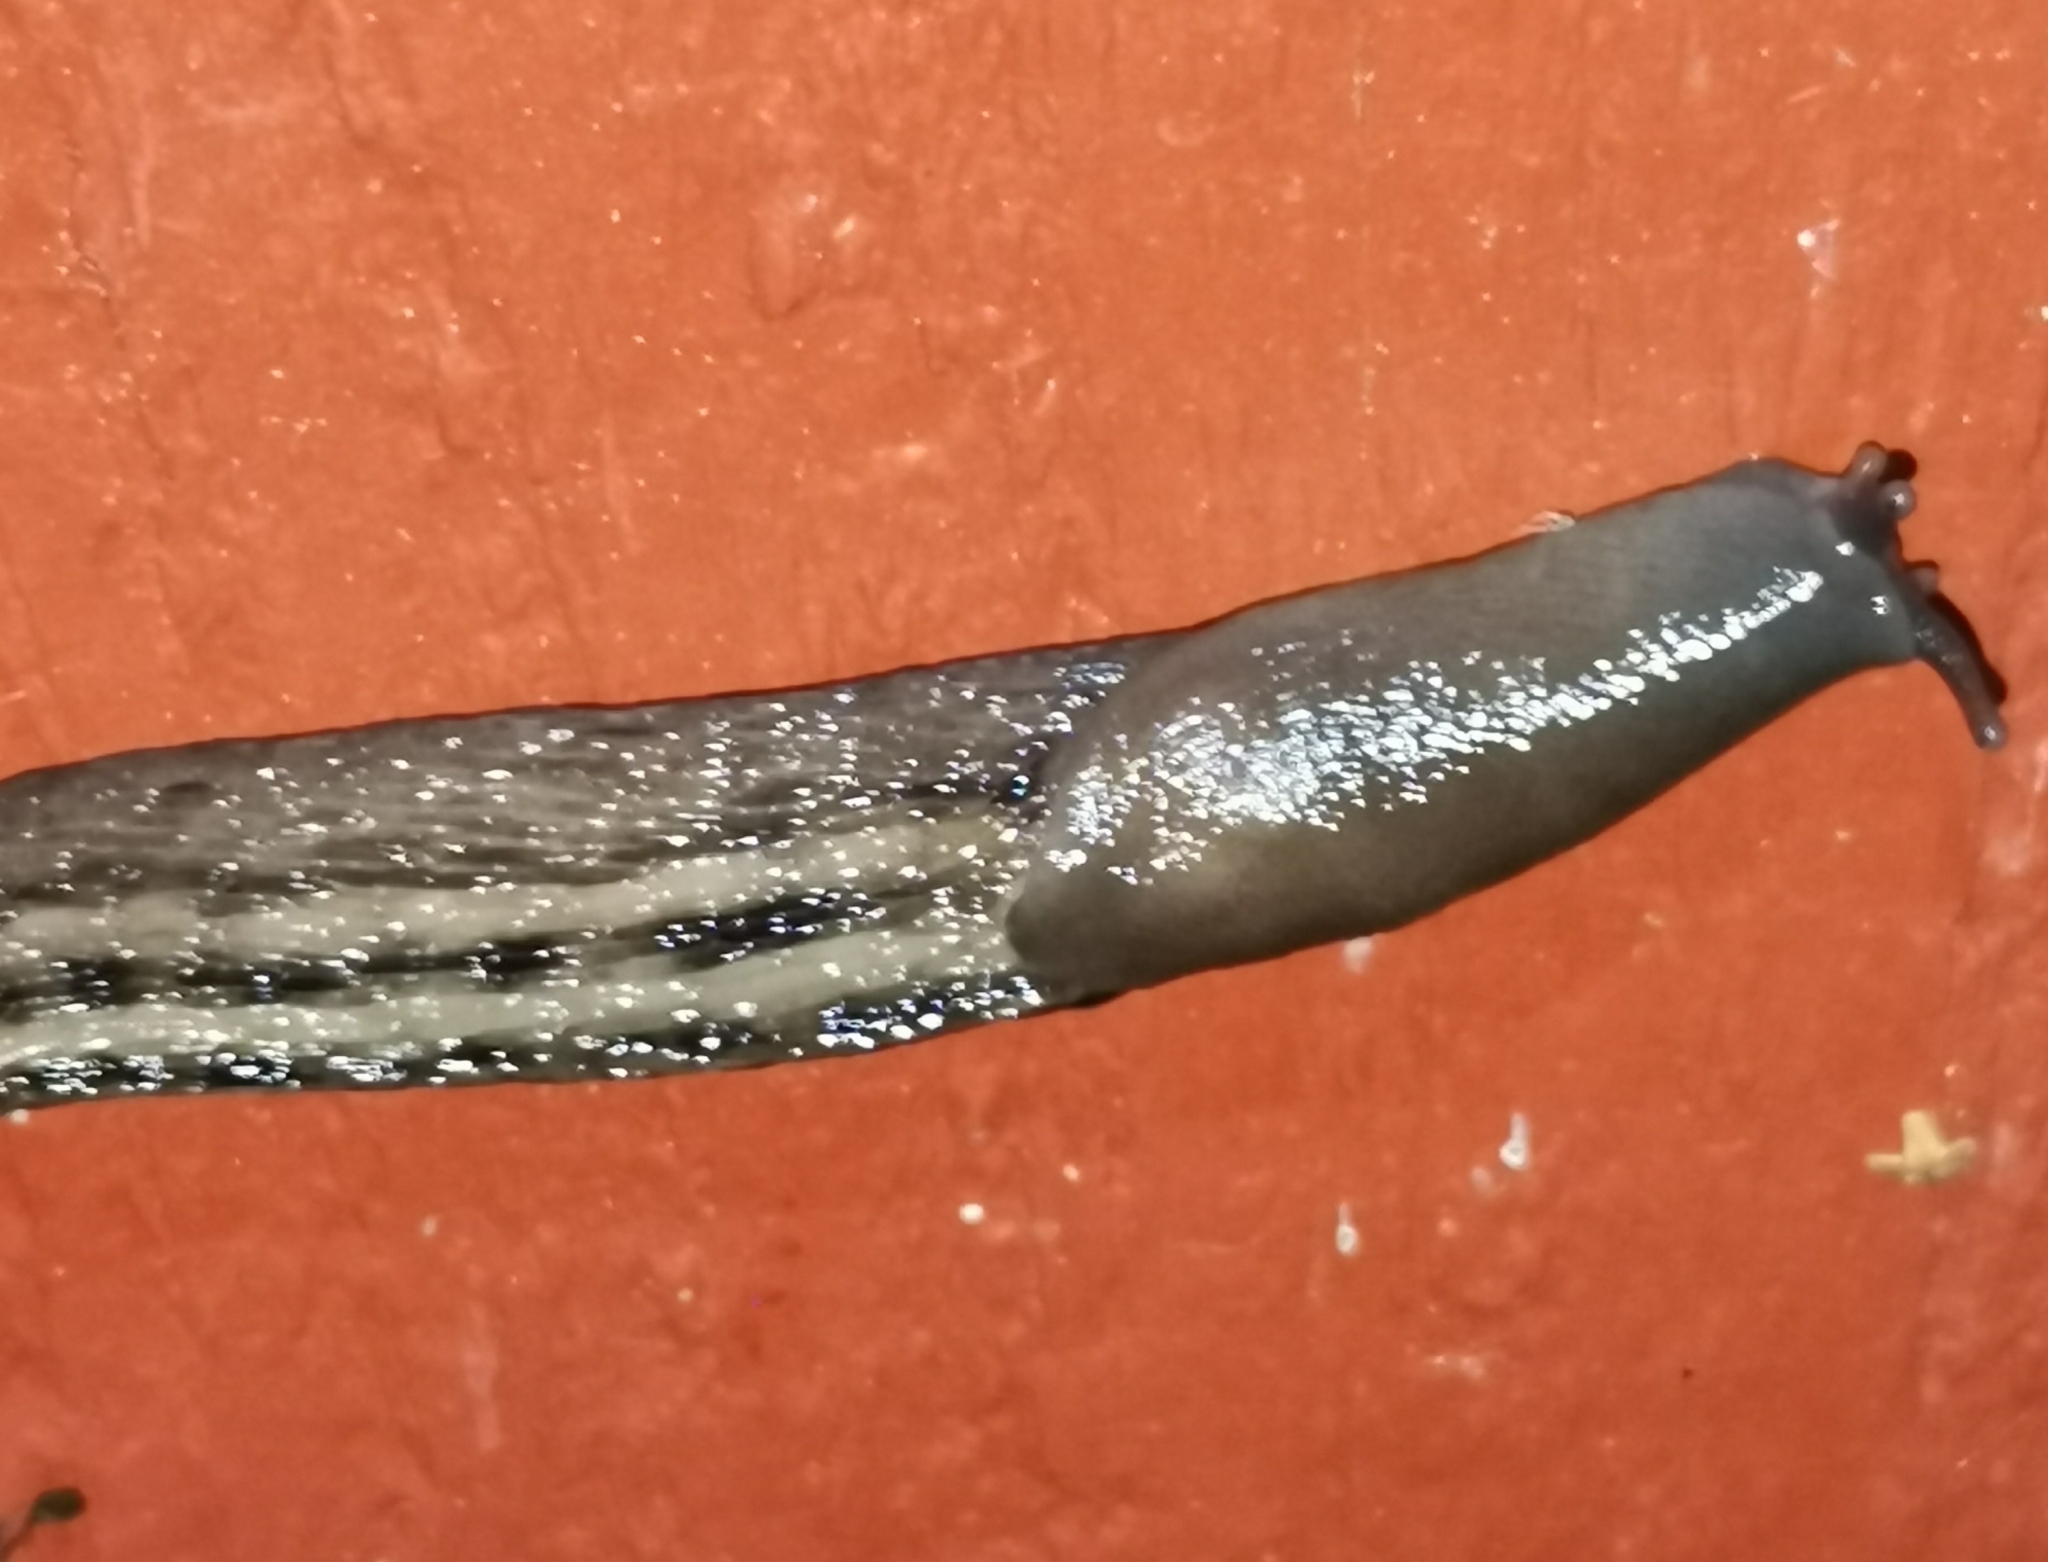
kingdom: Animalia
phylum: Mollusca
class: Gastropoda
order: Stylommatophora
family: Limacidae
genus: Limax
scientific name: Limax cinereoniger
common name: Ash-black slug
